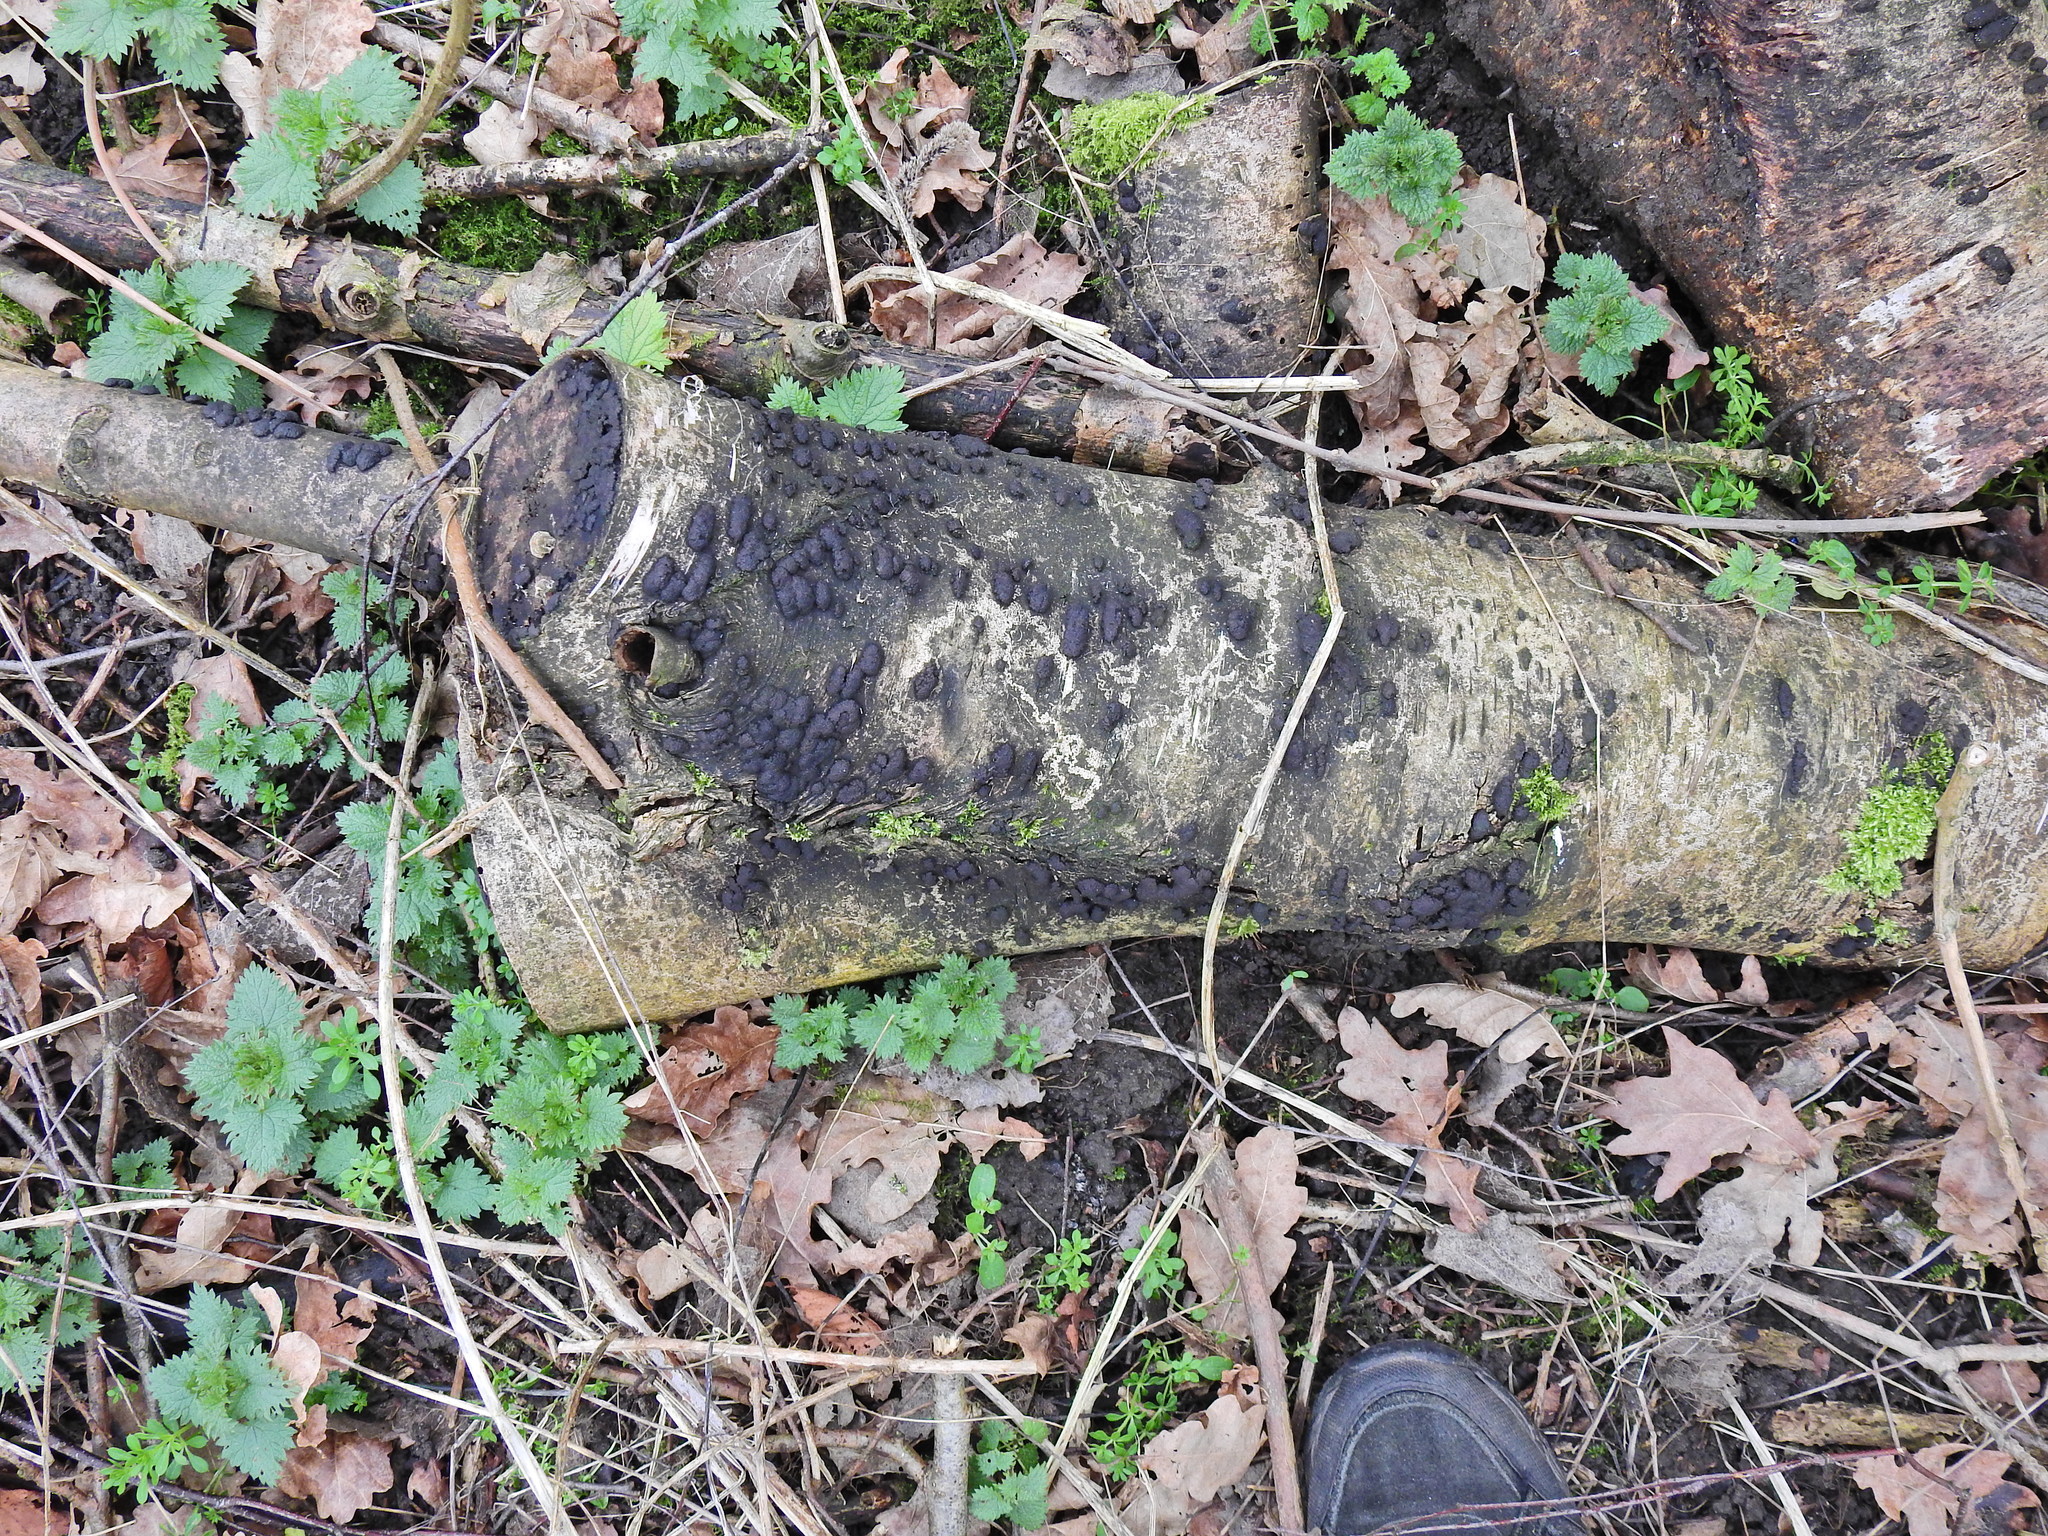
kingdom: Fungi
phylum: Ascomycota
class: Sordariomycetes
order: Xylariales
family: Hypoxylaceae
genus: Jackrogersella
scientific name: Jackrogersella multiformis
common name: Birch woodwart
